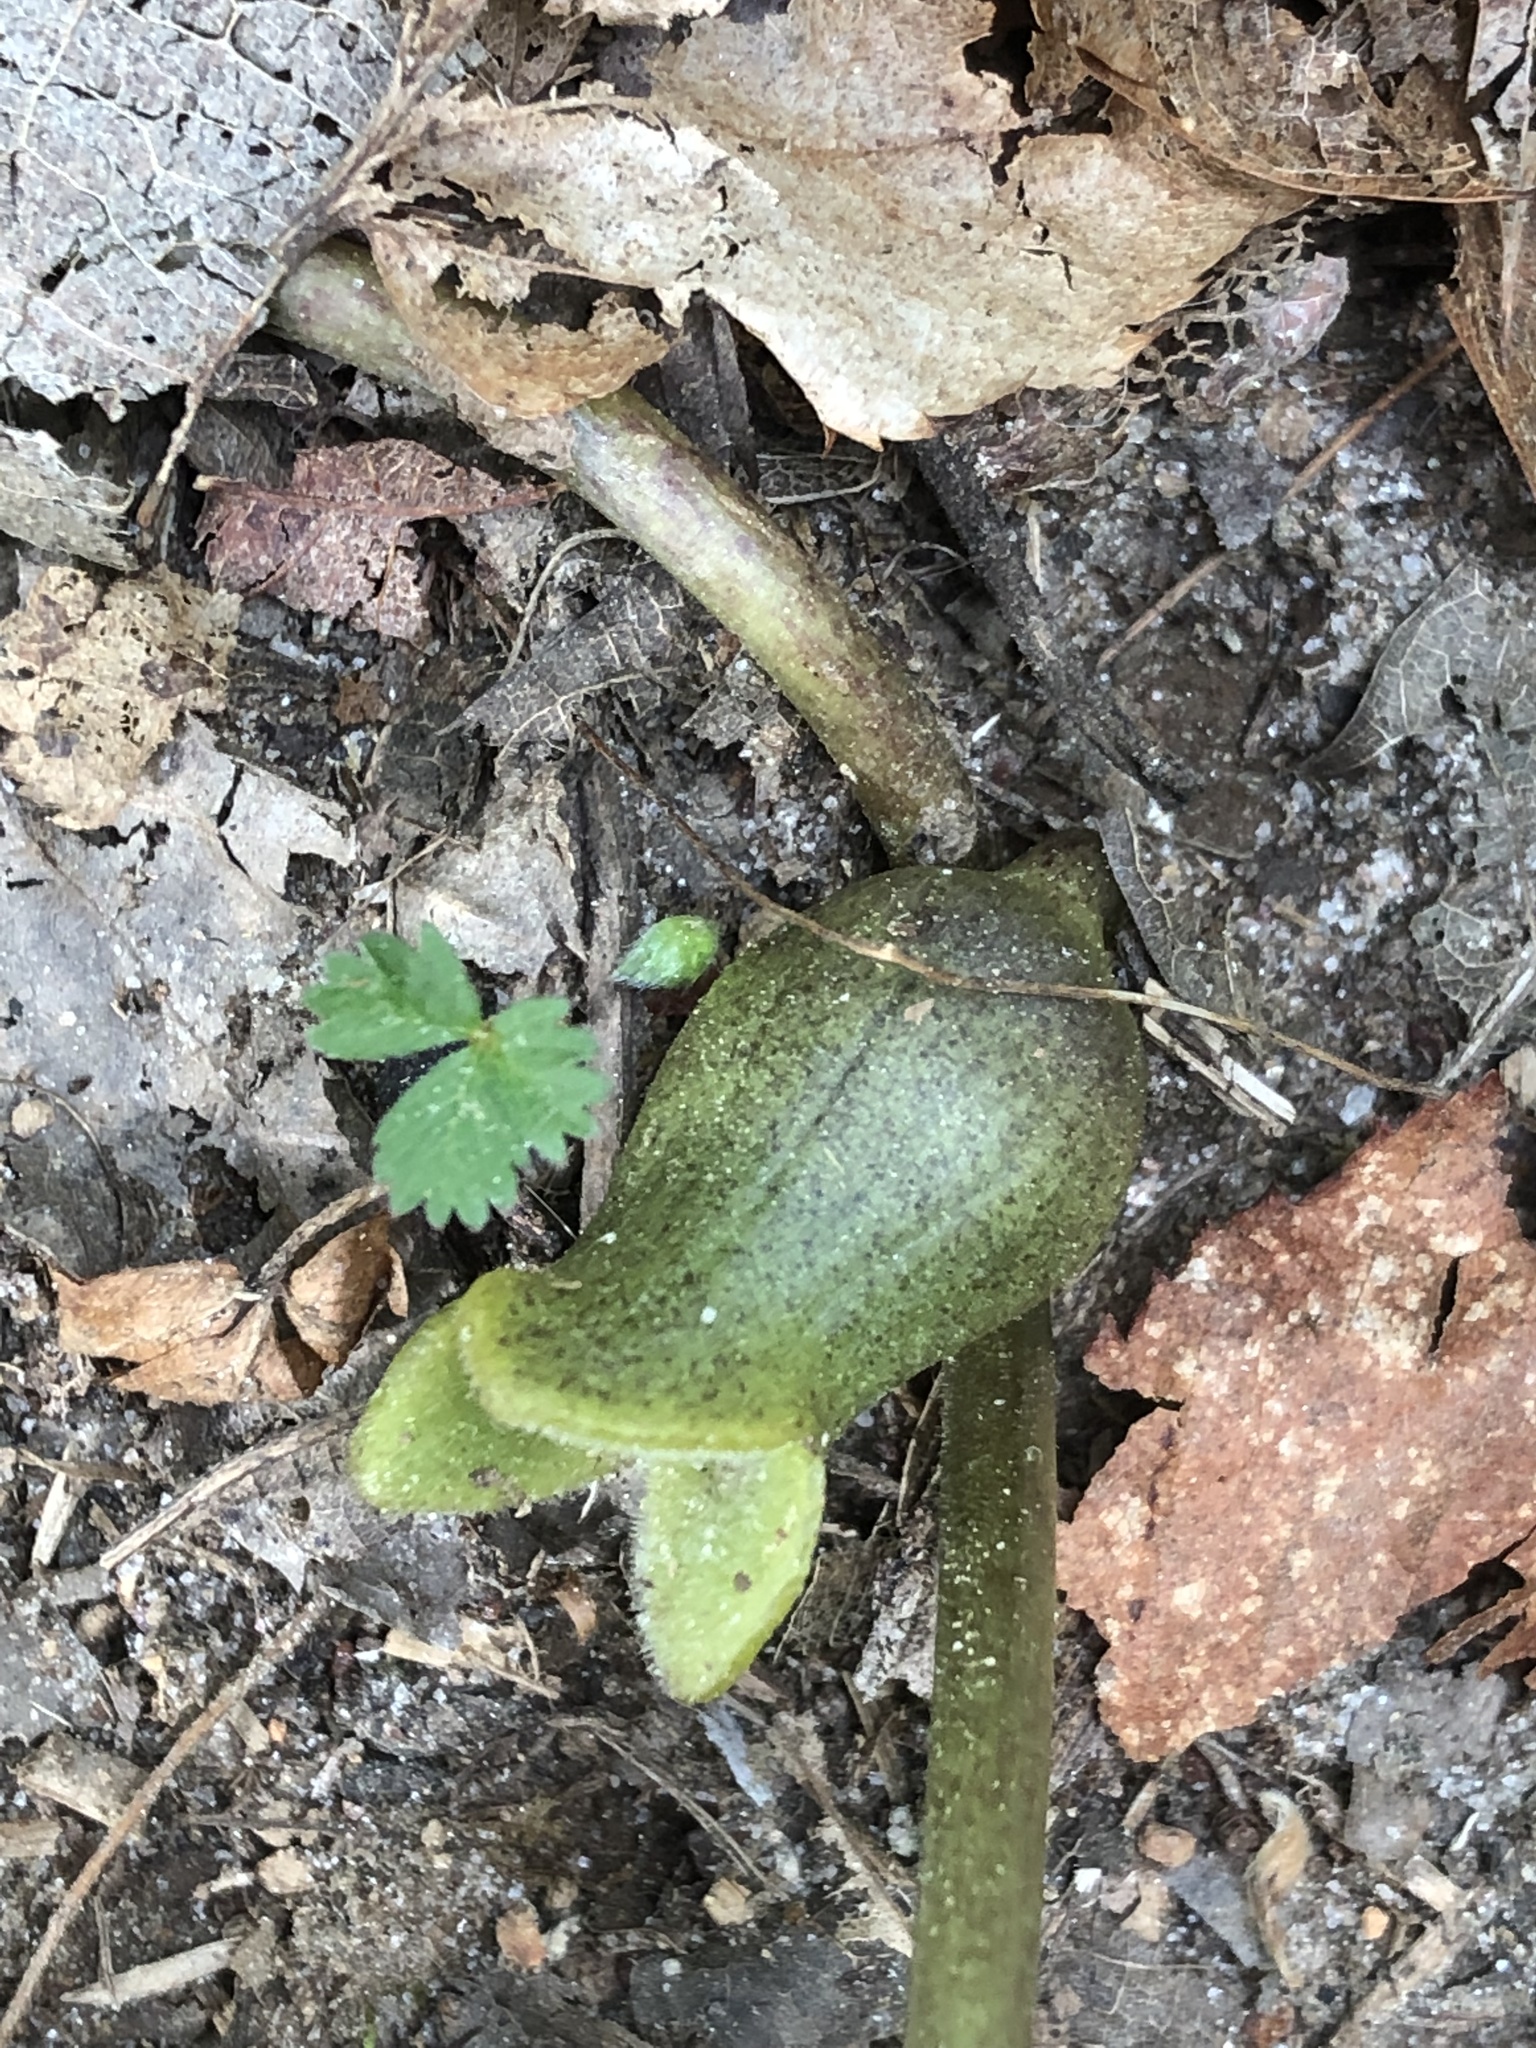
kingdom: Plantae
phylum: Tracheophyta
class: Magnoliopsida
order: Piperales
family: Aristolochiaceae
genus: Hexastylis
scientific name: Hexastylis arifolia
